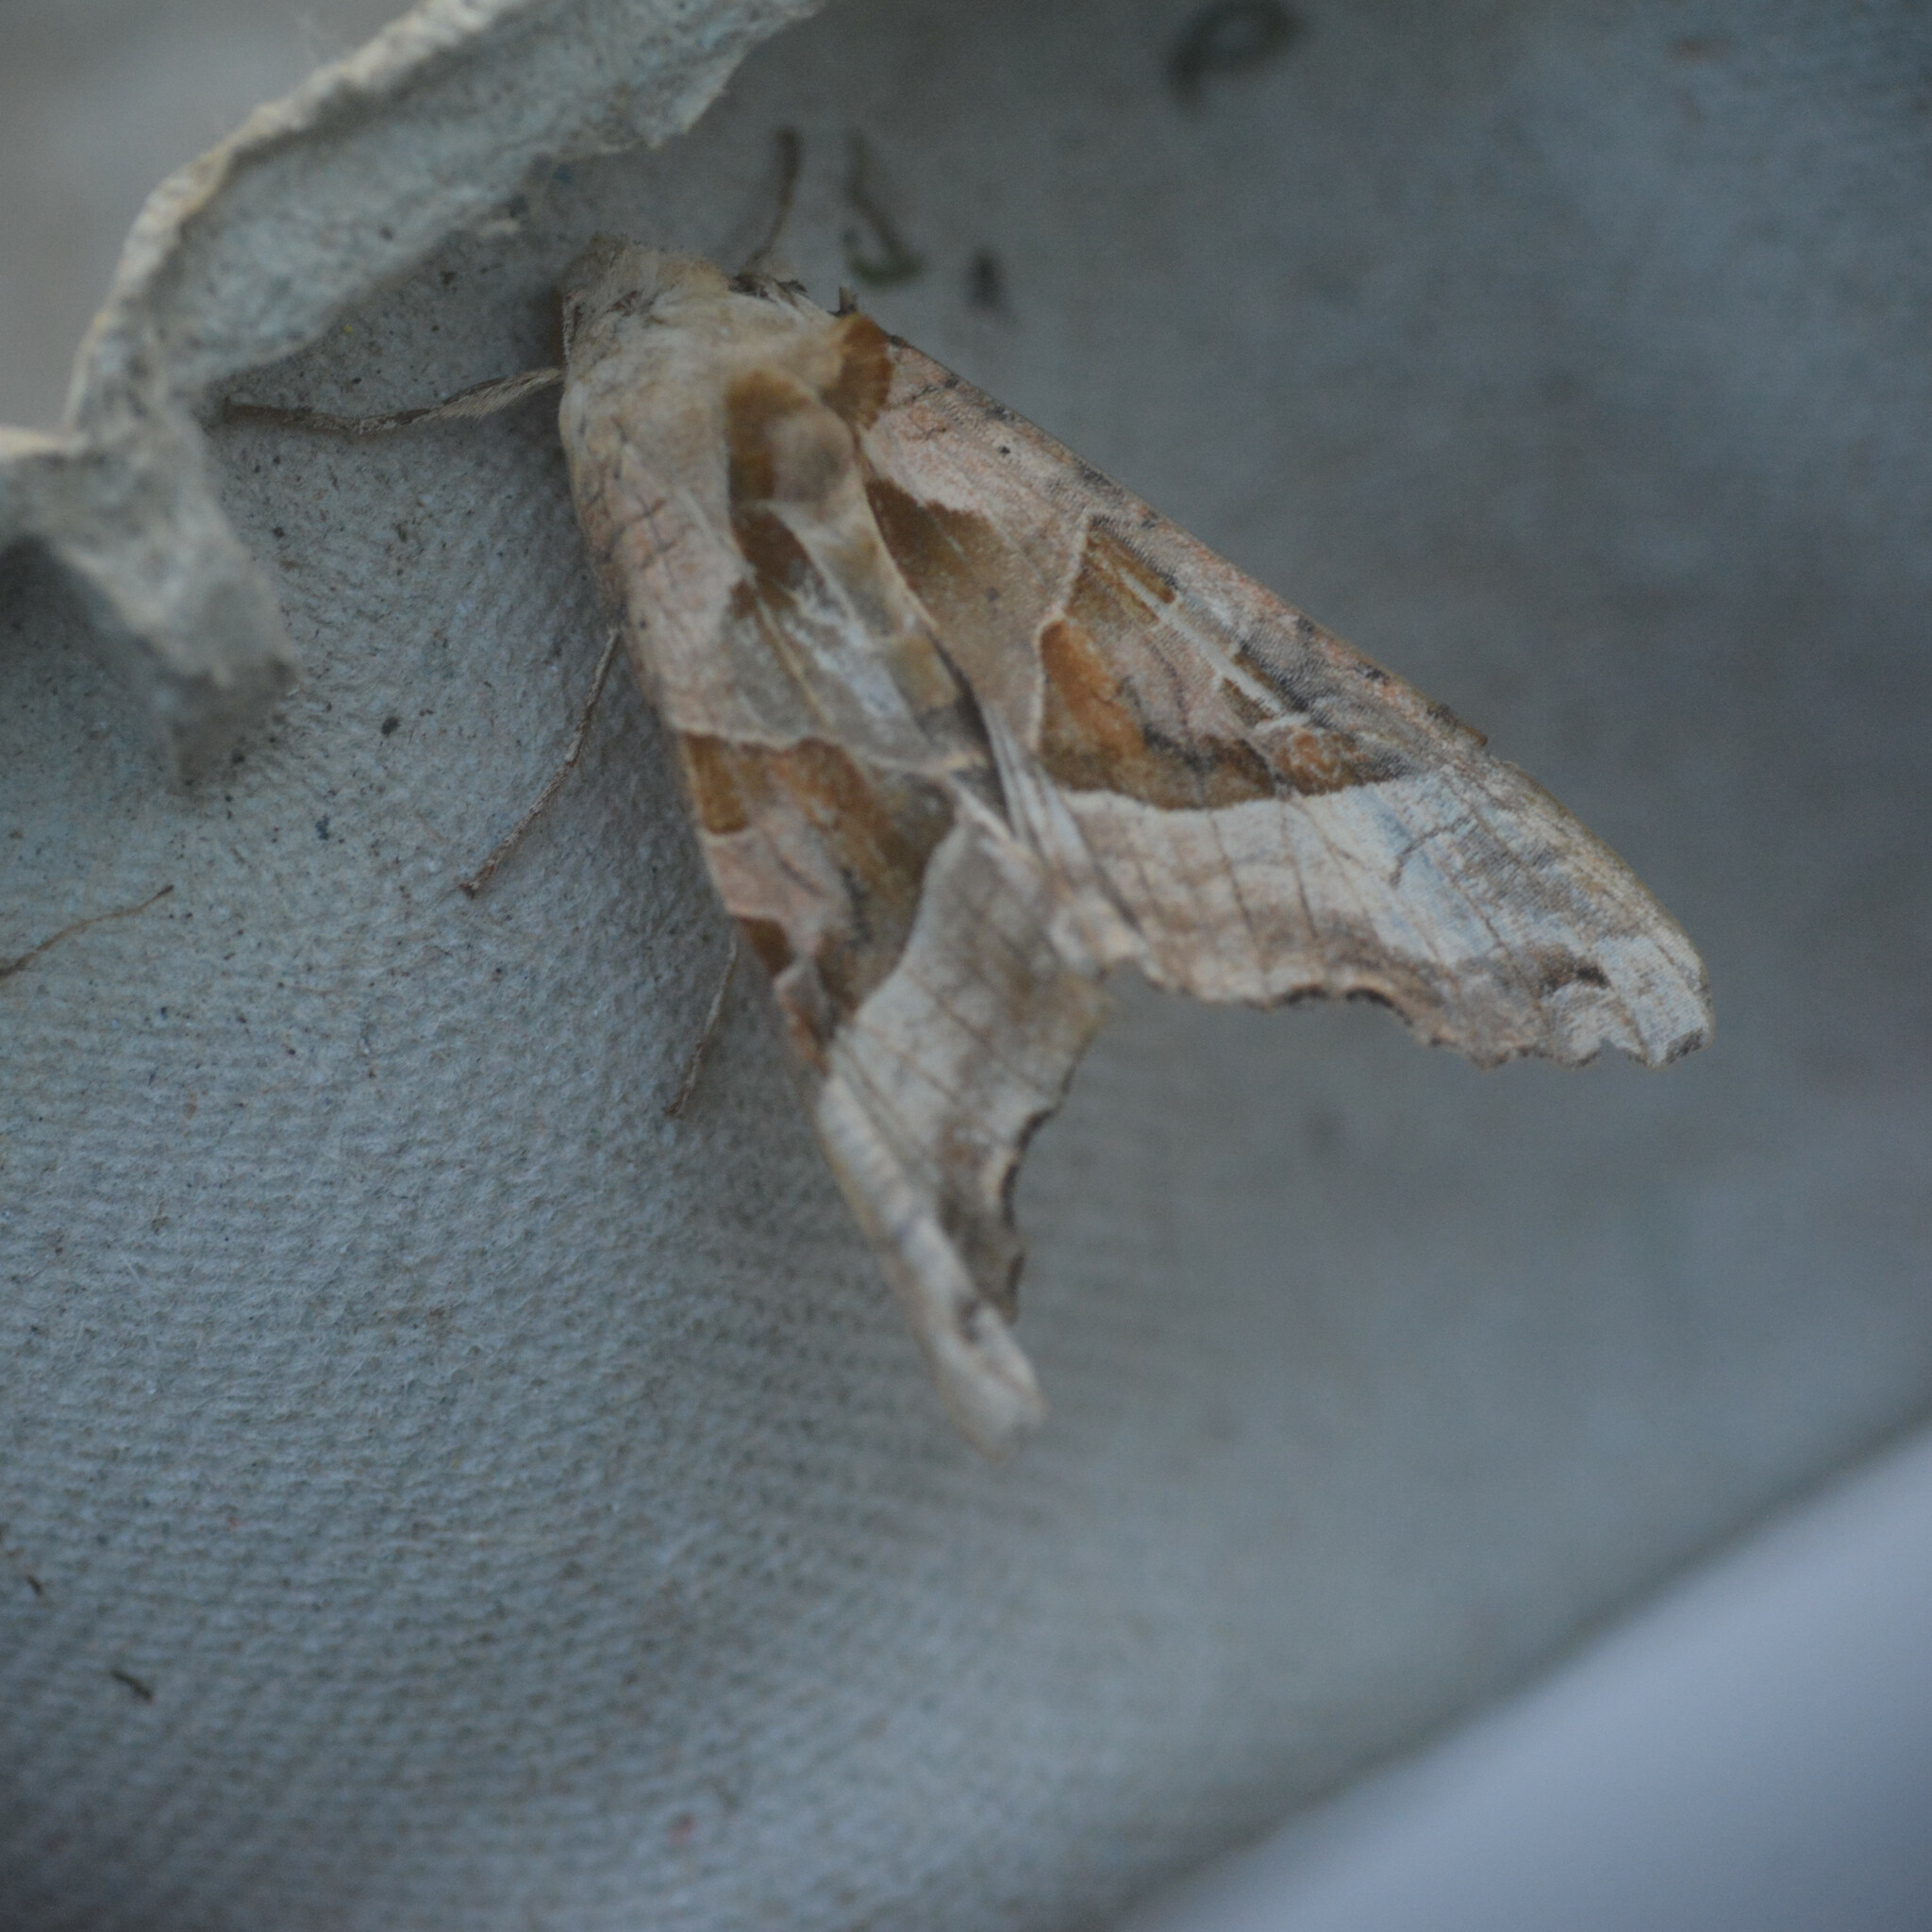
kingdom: Animalia
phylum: Arthropoda
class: Insecta
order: Lepidoptera
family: Noctuidae
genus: Phlogophora
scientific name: Phlogophora meticulosa
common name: Angle shades
